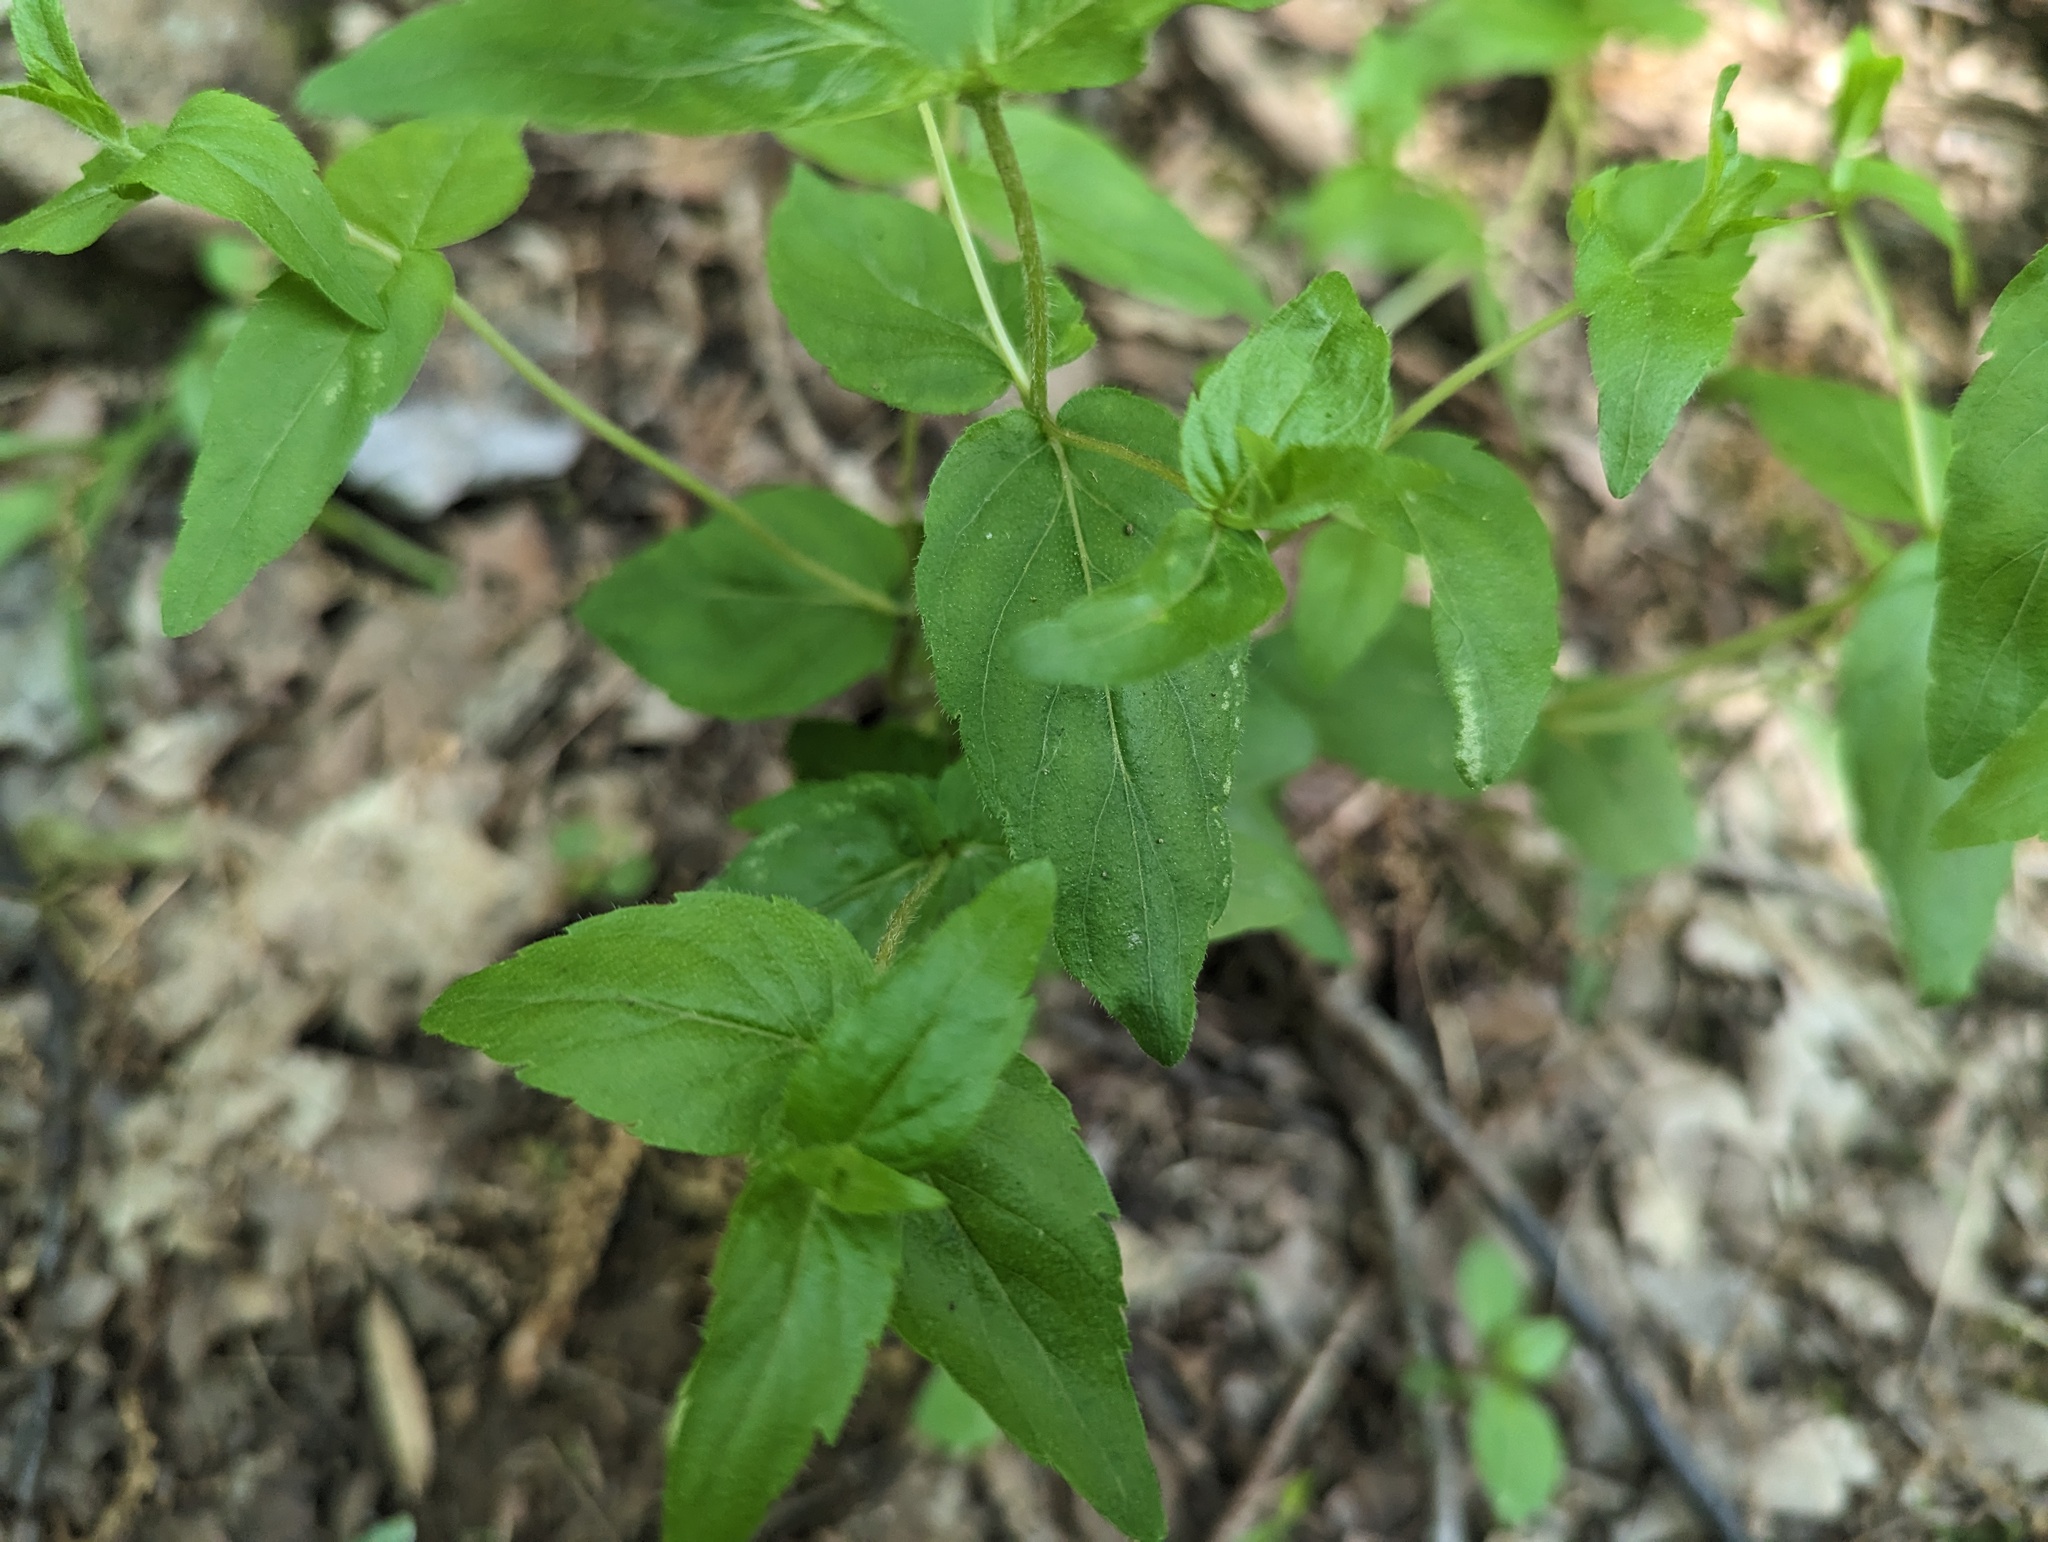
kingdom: Plantae
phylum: Tracheophyta
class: Magnoliopsida
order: Lamiales
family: Lamiaceae
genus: Cunila
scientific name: Cunila origanoides
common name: American dittany
